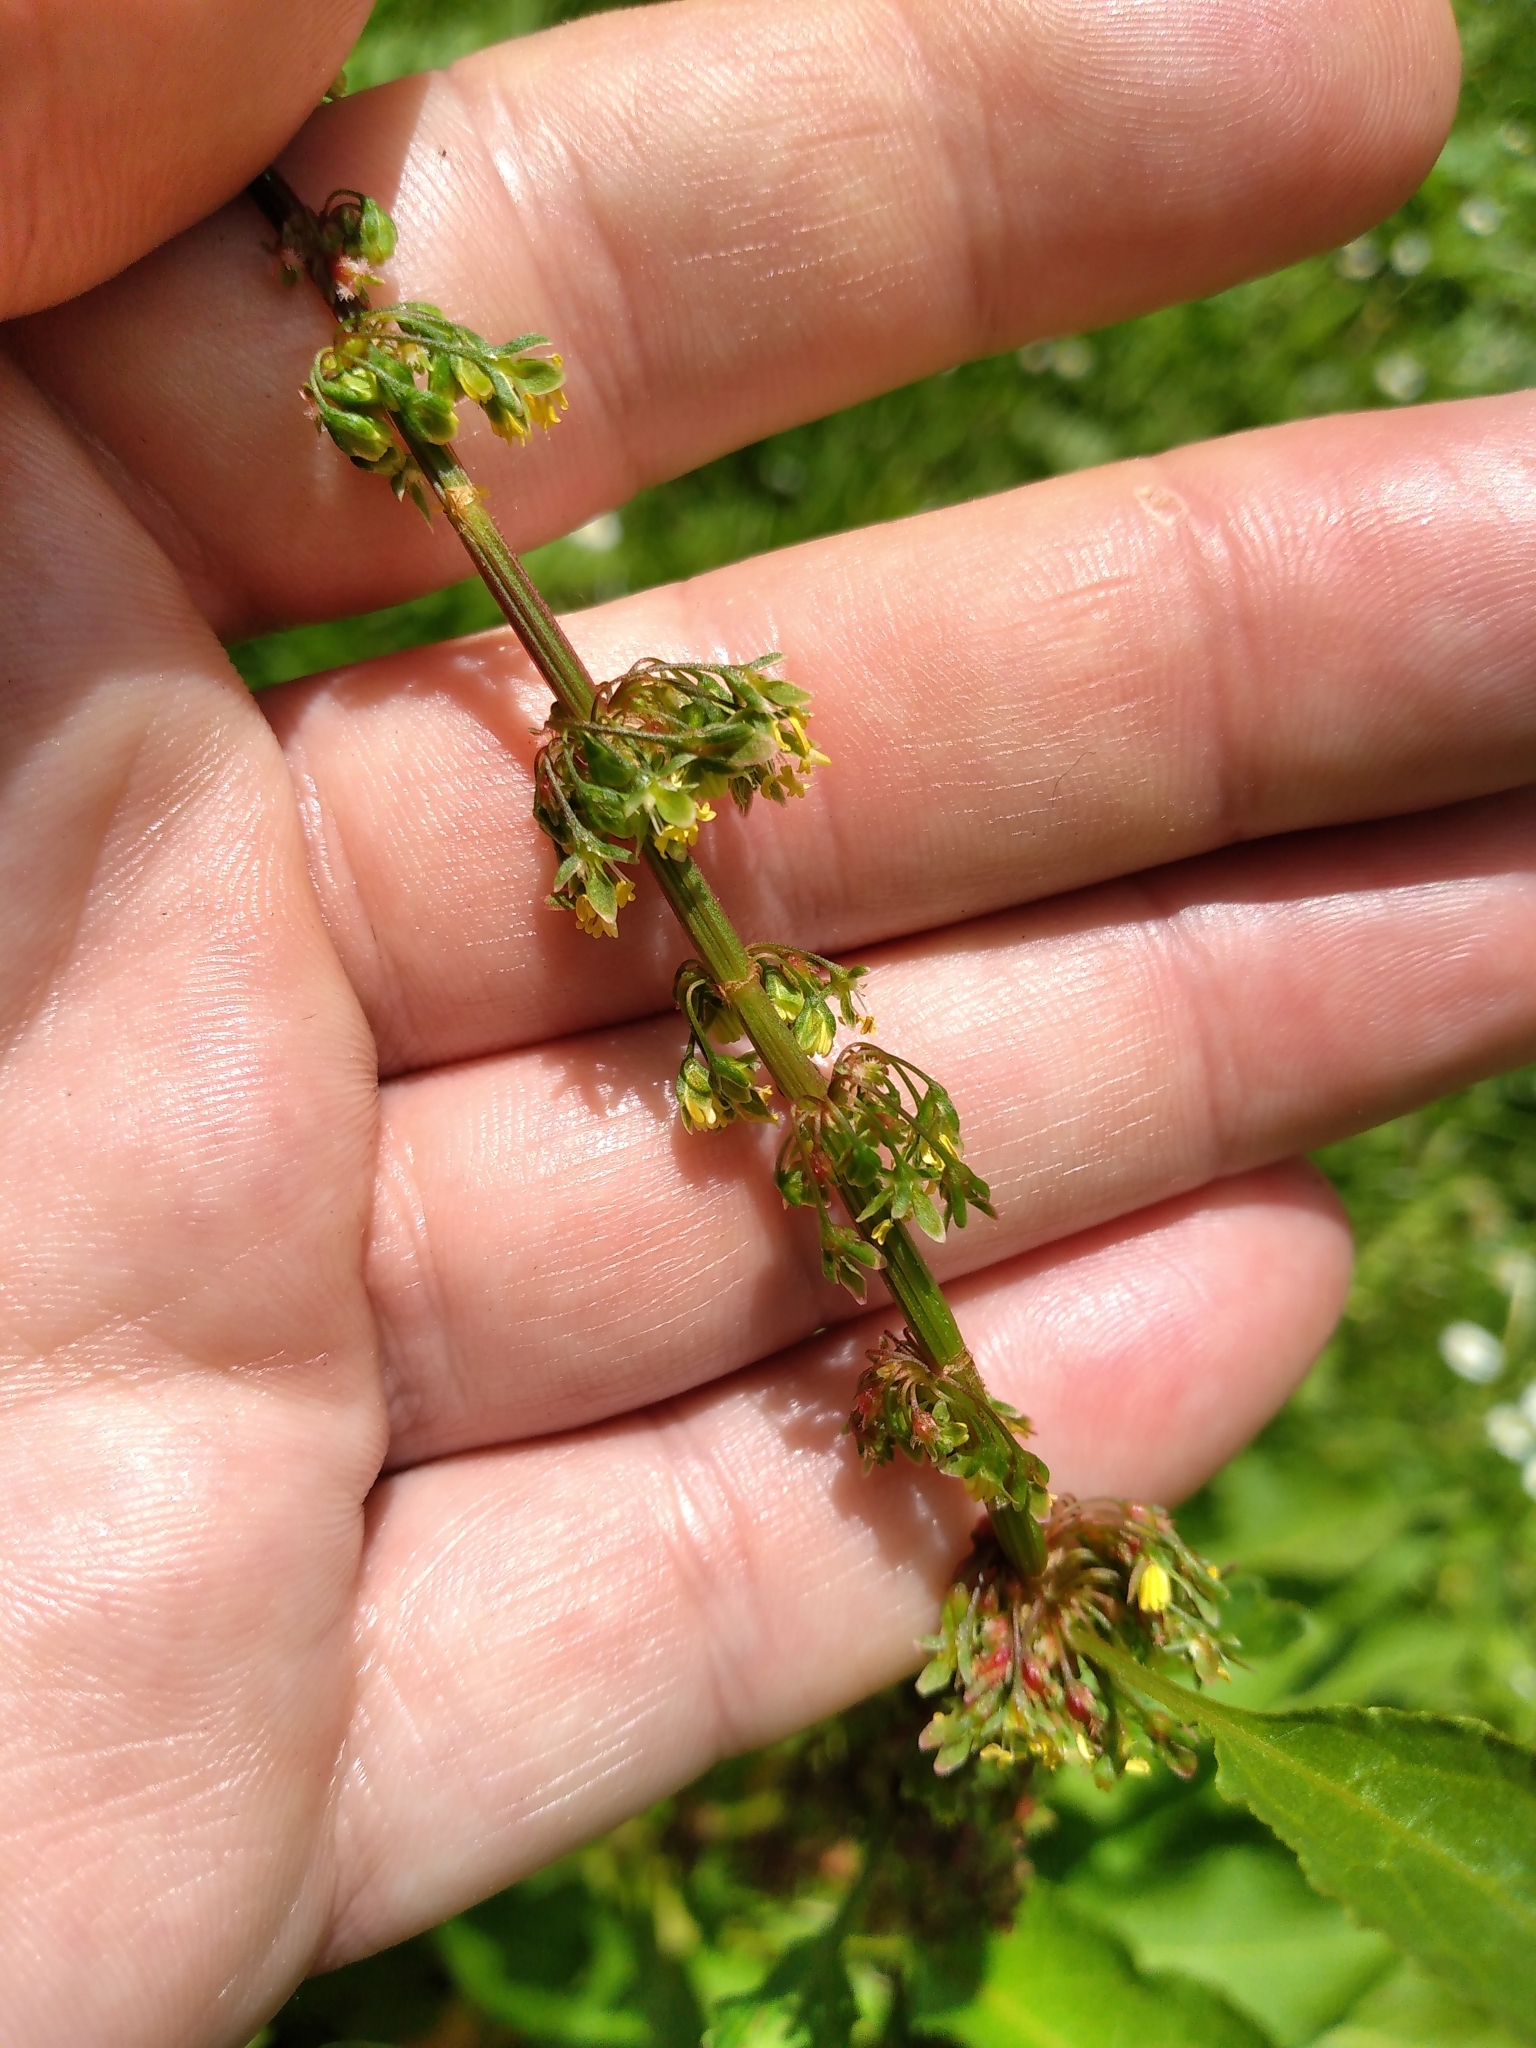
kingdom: Plantae
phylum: Tracheophyta
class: Magnoliopsida
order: Caryophyllales
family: Polygonaceae
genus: Rumex
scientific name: Rumex obtusifolius
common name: Bitter dock
